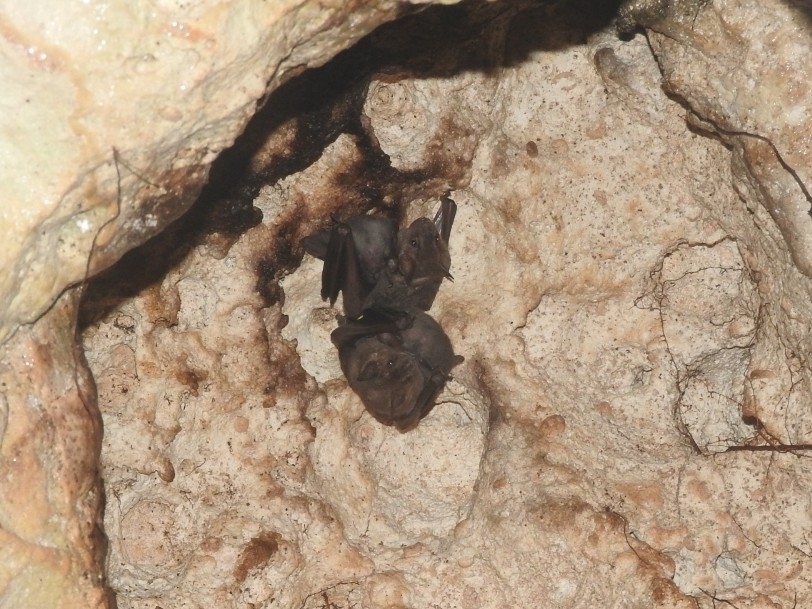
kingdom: Animalia
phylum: Chordata
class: Mammalia
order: Chiroptera
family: Phyllostomidae
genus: Artibeus
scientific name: Artibeus jamaicensis
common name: Jamaican fruit-eating bat
